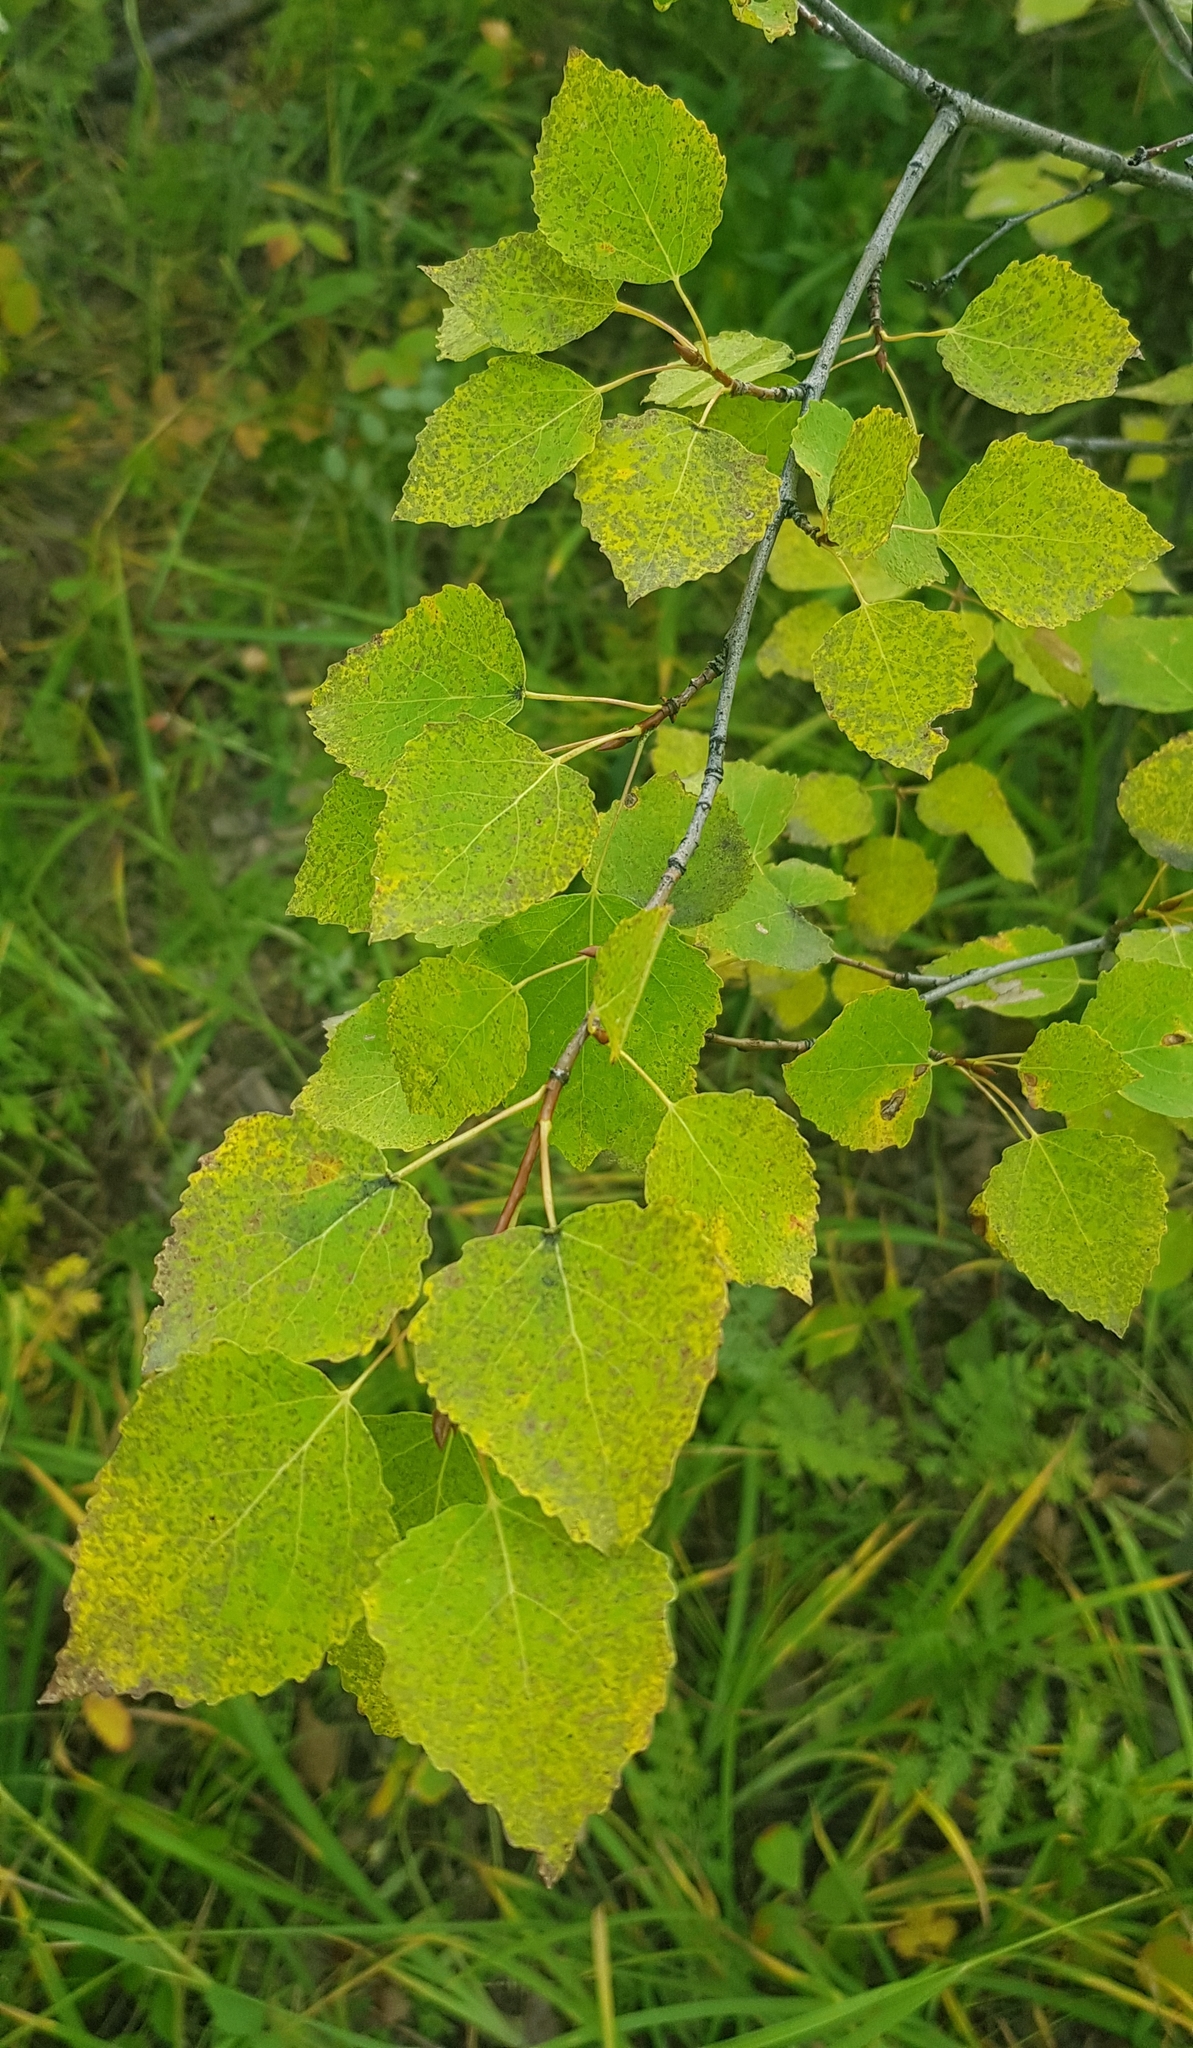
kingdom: Plantae
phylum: Tracheophyta
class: Magnoliopsida
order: Malpighiales
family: Salicaceae
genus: Populus
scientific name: Populus tremula
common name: European aspen
